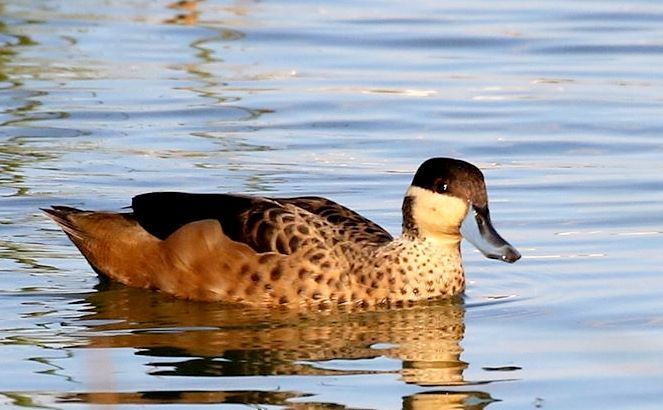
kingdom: Animalia
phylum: Chordata
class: Aves
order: Anseriformes
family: Anatidae
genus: Spatula
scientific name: Spatula hottentota
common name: Blue-billed teal
